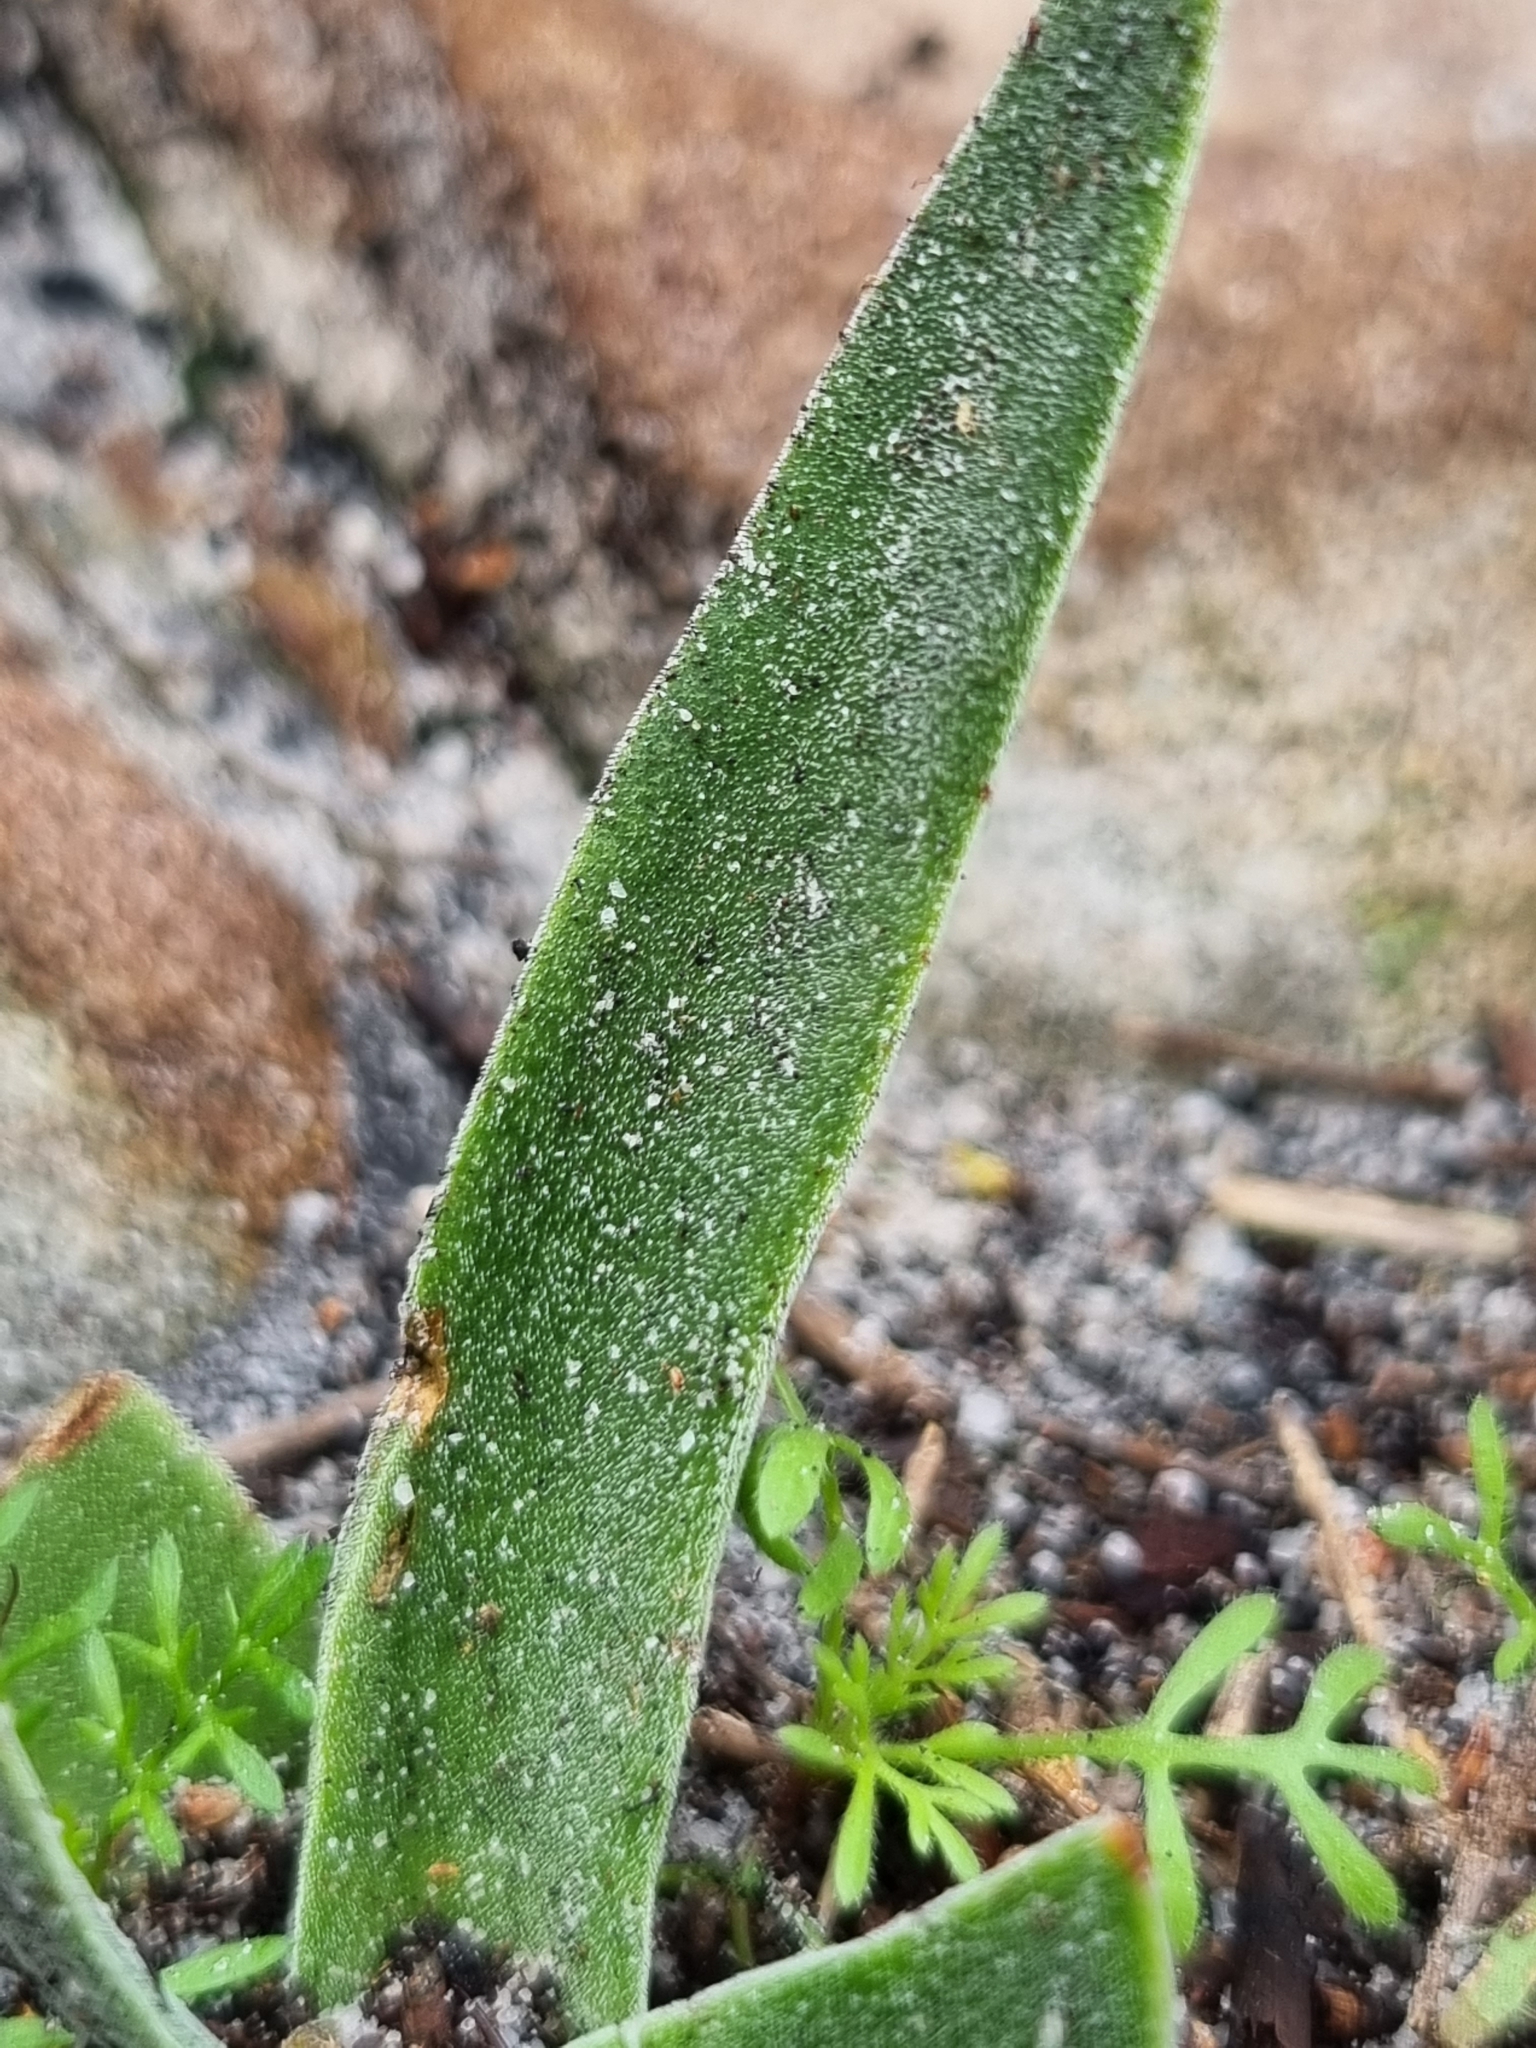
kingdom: Plantae
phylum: Tracheophyta
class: Magnoliopsida
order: Saxifragales
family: Crassulaceae
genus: Crassula
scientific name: Crassula nudicaulis
